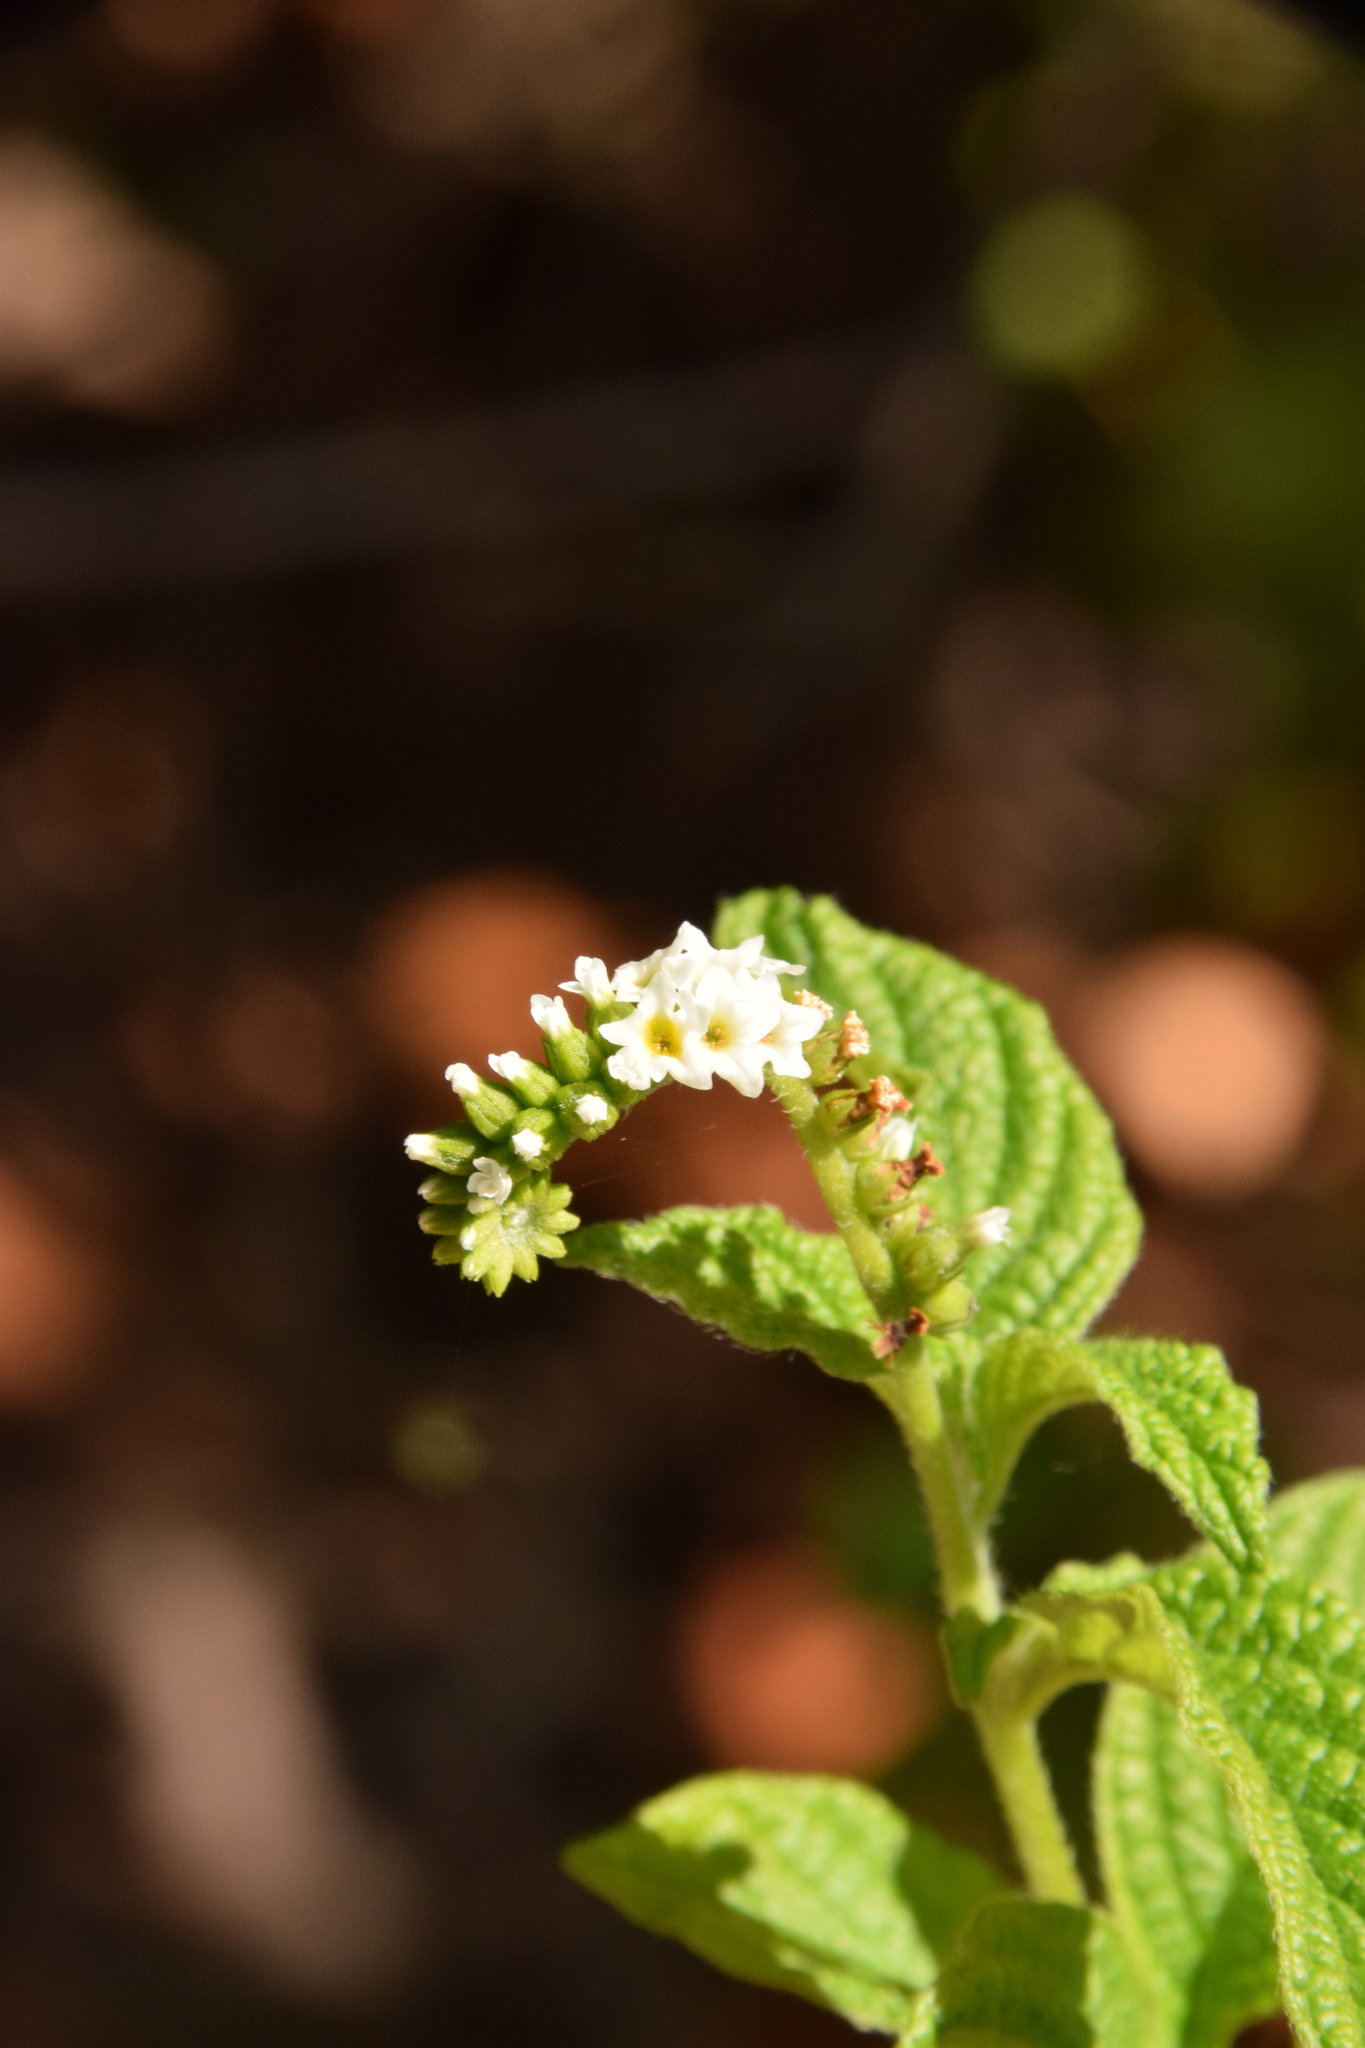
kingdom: Plantae
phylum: Tracheophyta
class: Magnoliopsida
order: Boraginales
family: Heliotropiaceae
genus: Heliotropium
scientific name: Heliotropium angiospermum
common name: Eye bright
